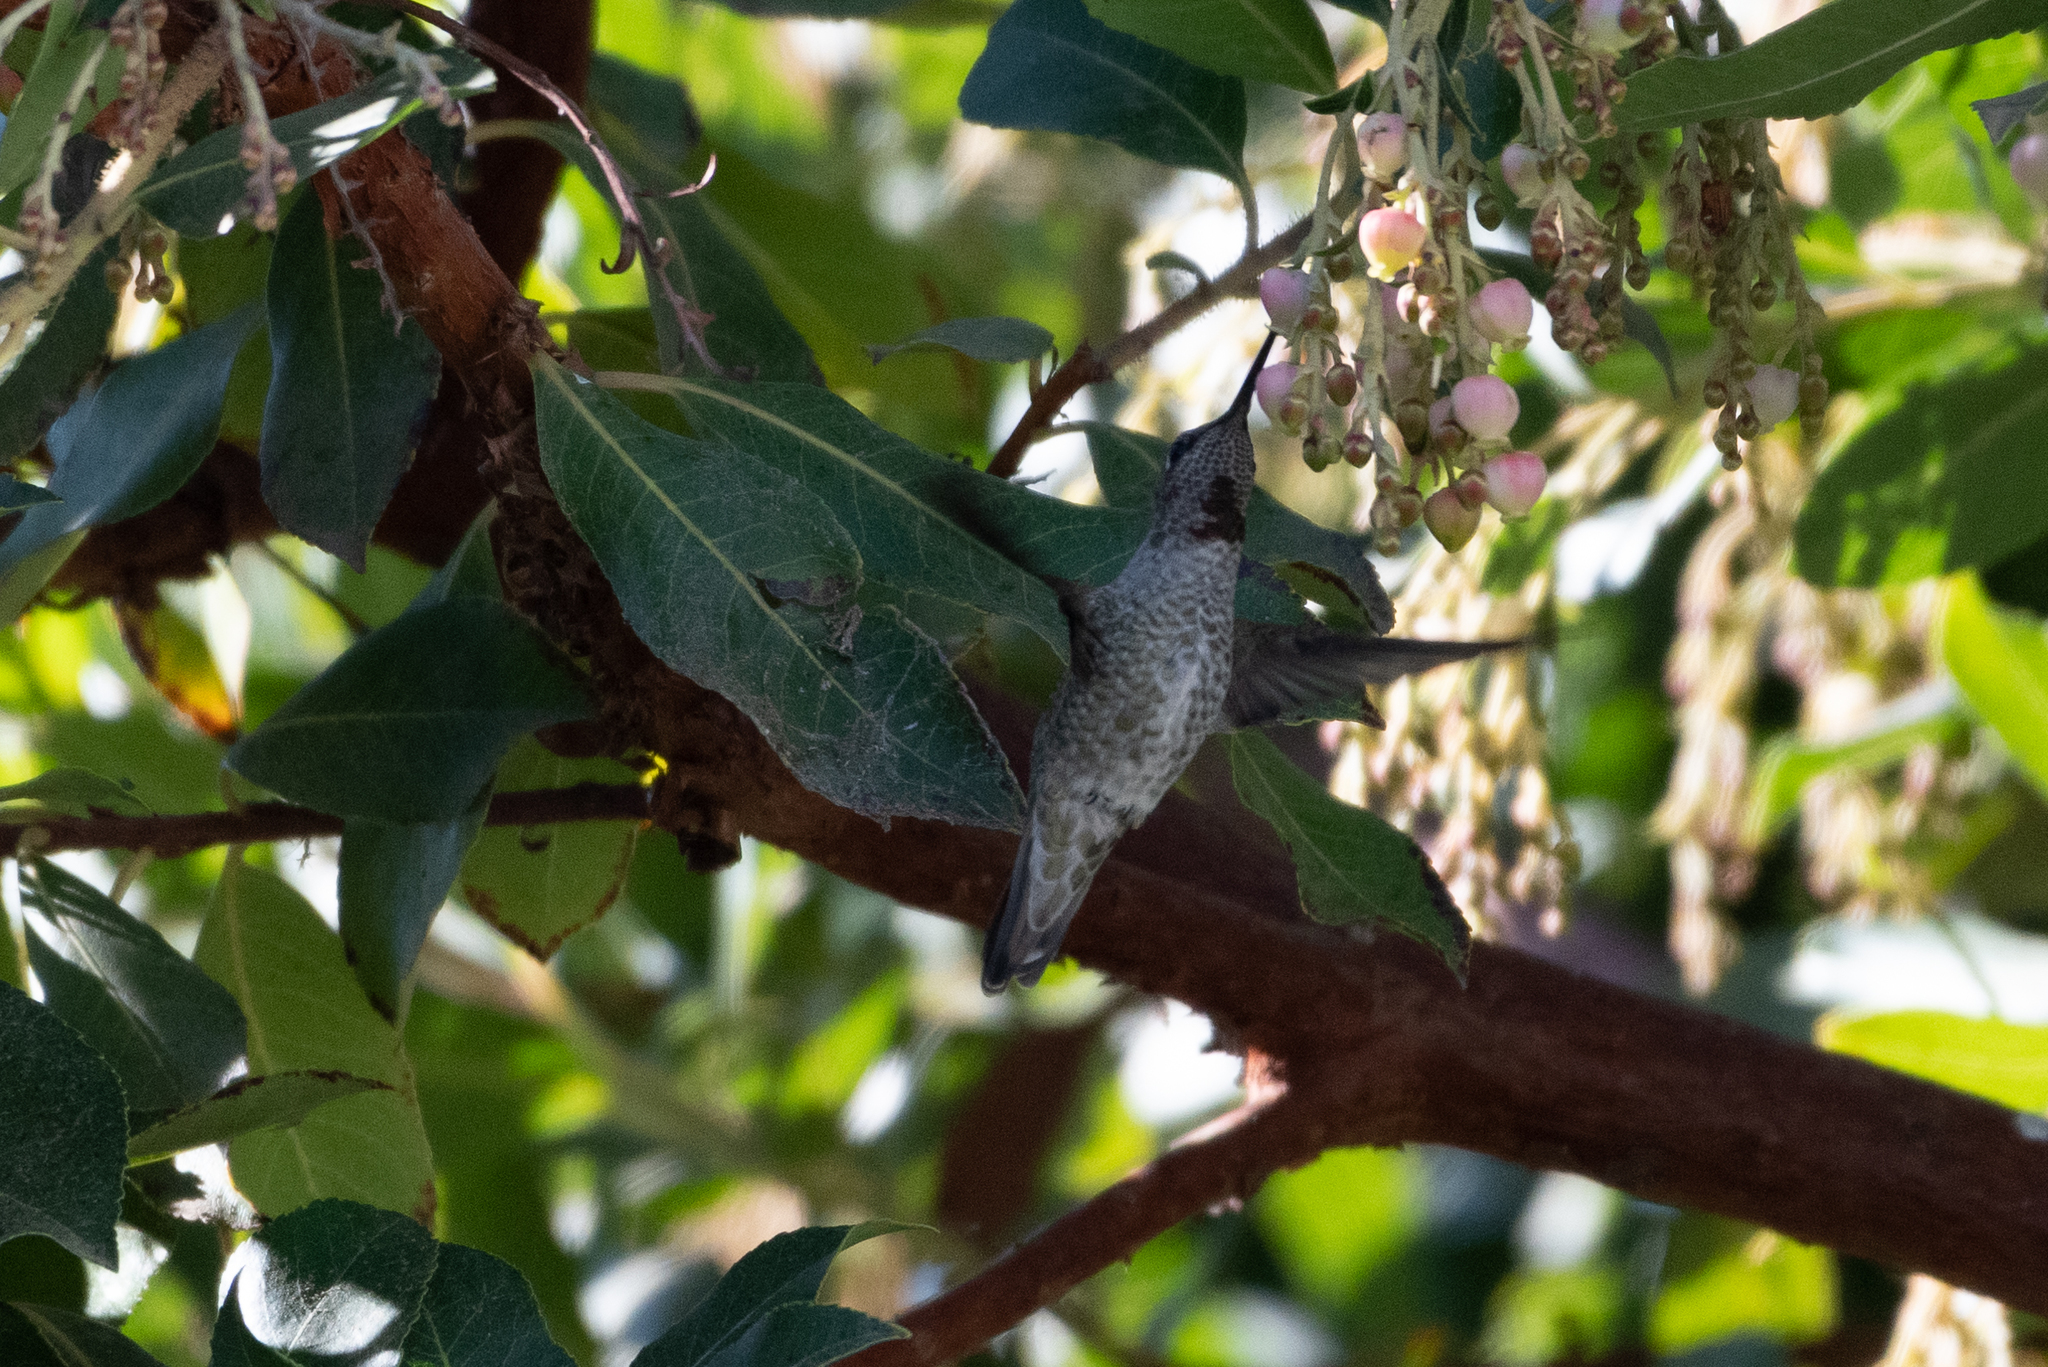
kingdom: Animalia
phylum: Chordata
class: Aves
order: Apodiformes
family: Trochilidae
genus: Calypte
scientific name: Calypte anna
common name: Anna's hummingbird
